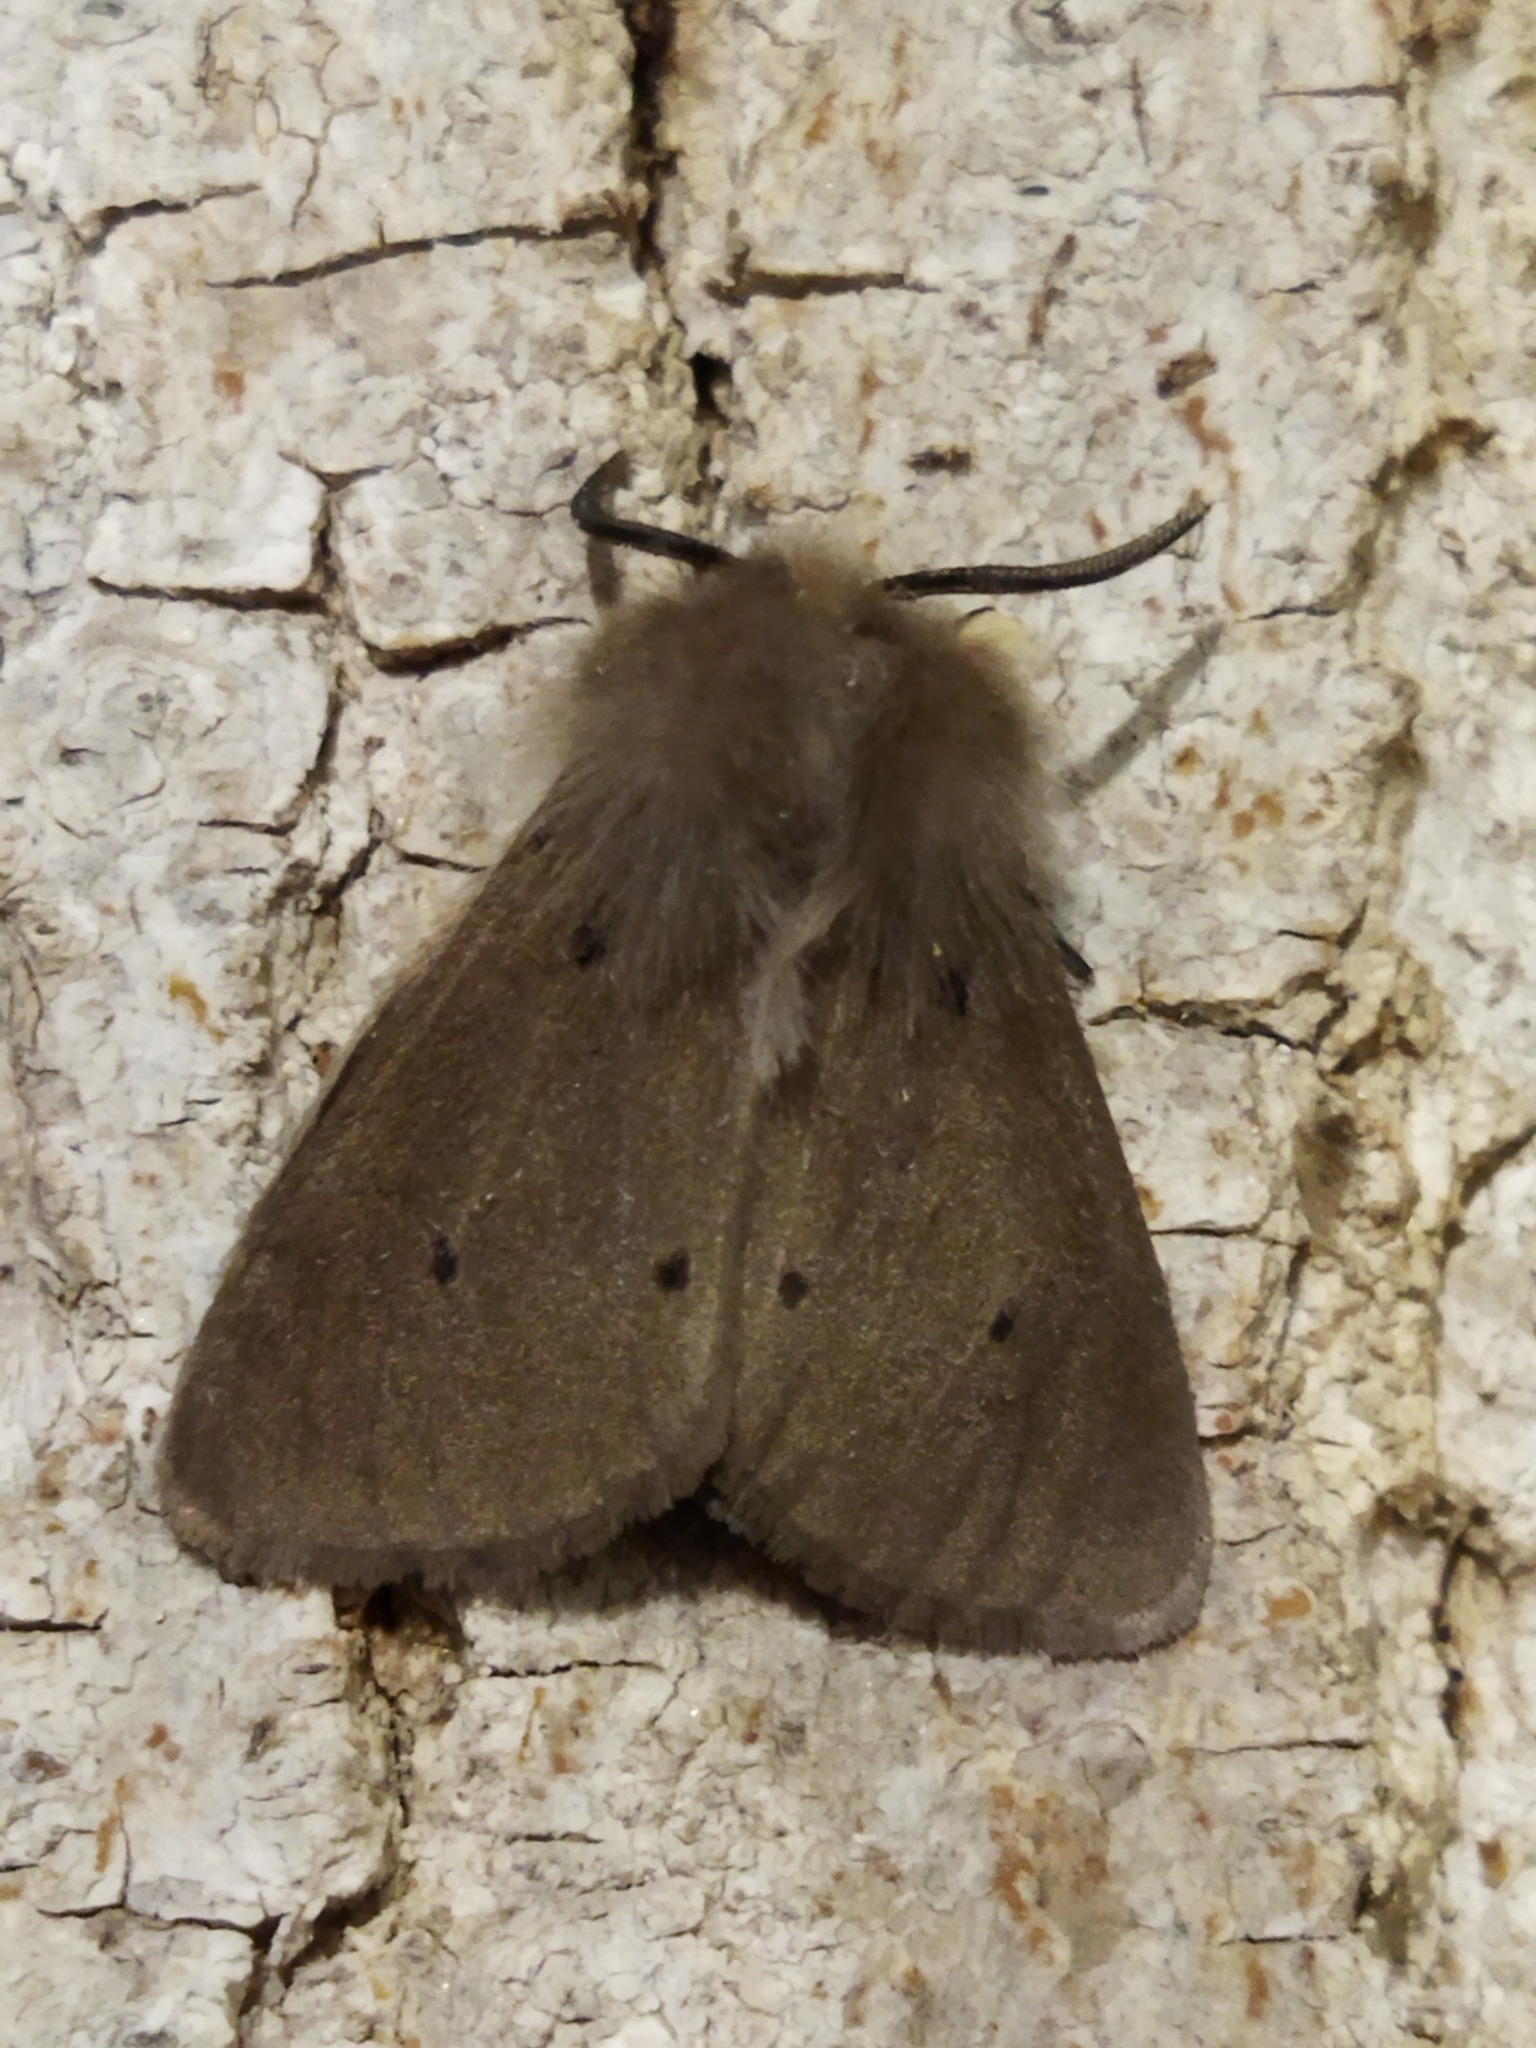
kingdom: Animalia
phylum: Arthropoda
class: Insecta
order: Lepidoptera
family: Erebidae
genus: Diaphora
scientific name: Diaphora mendica
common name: Muslin moth
